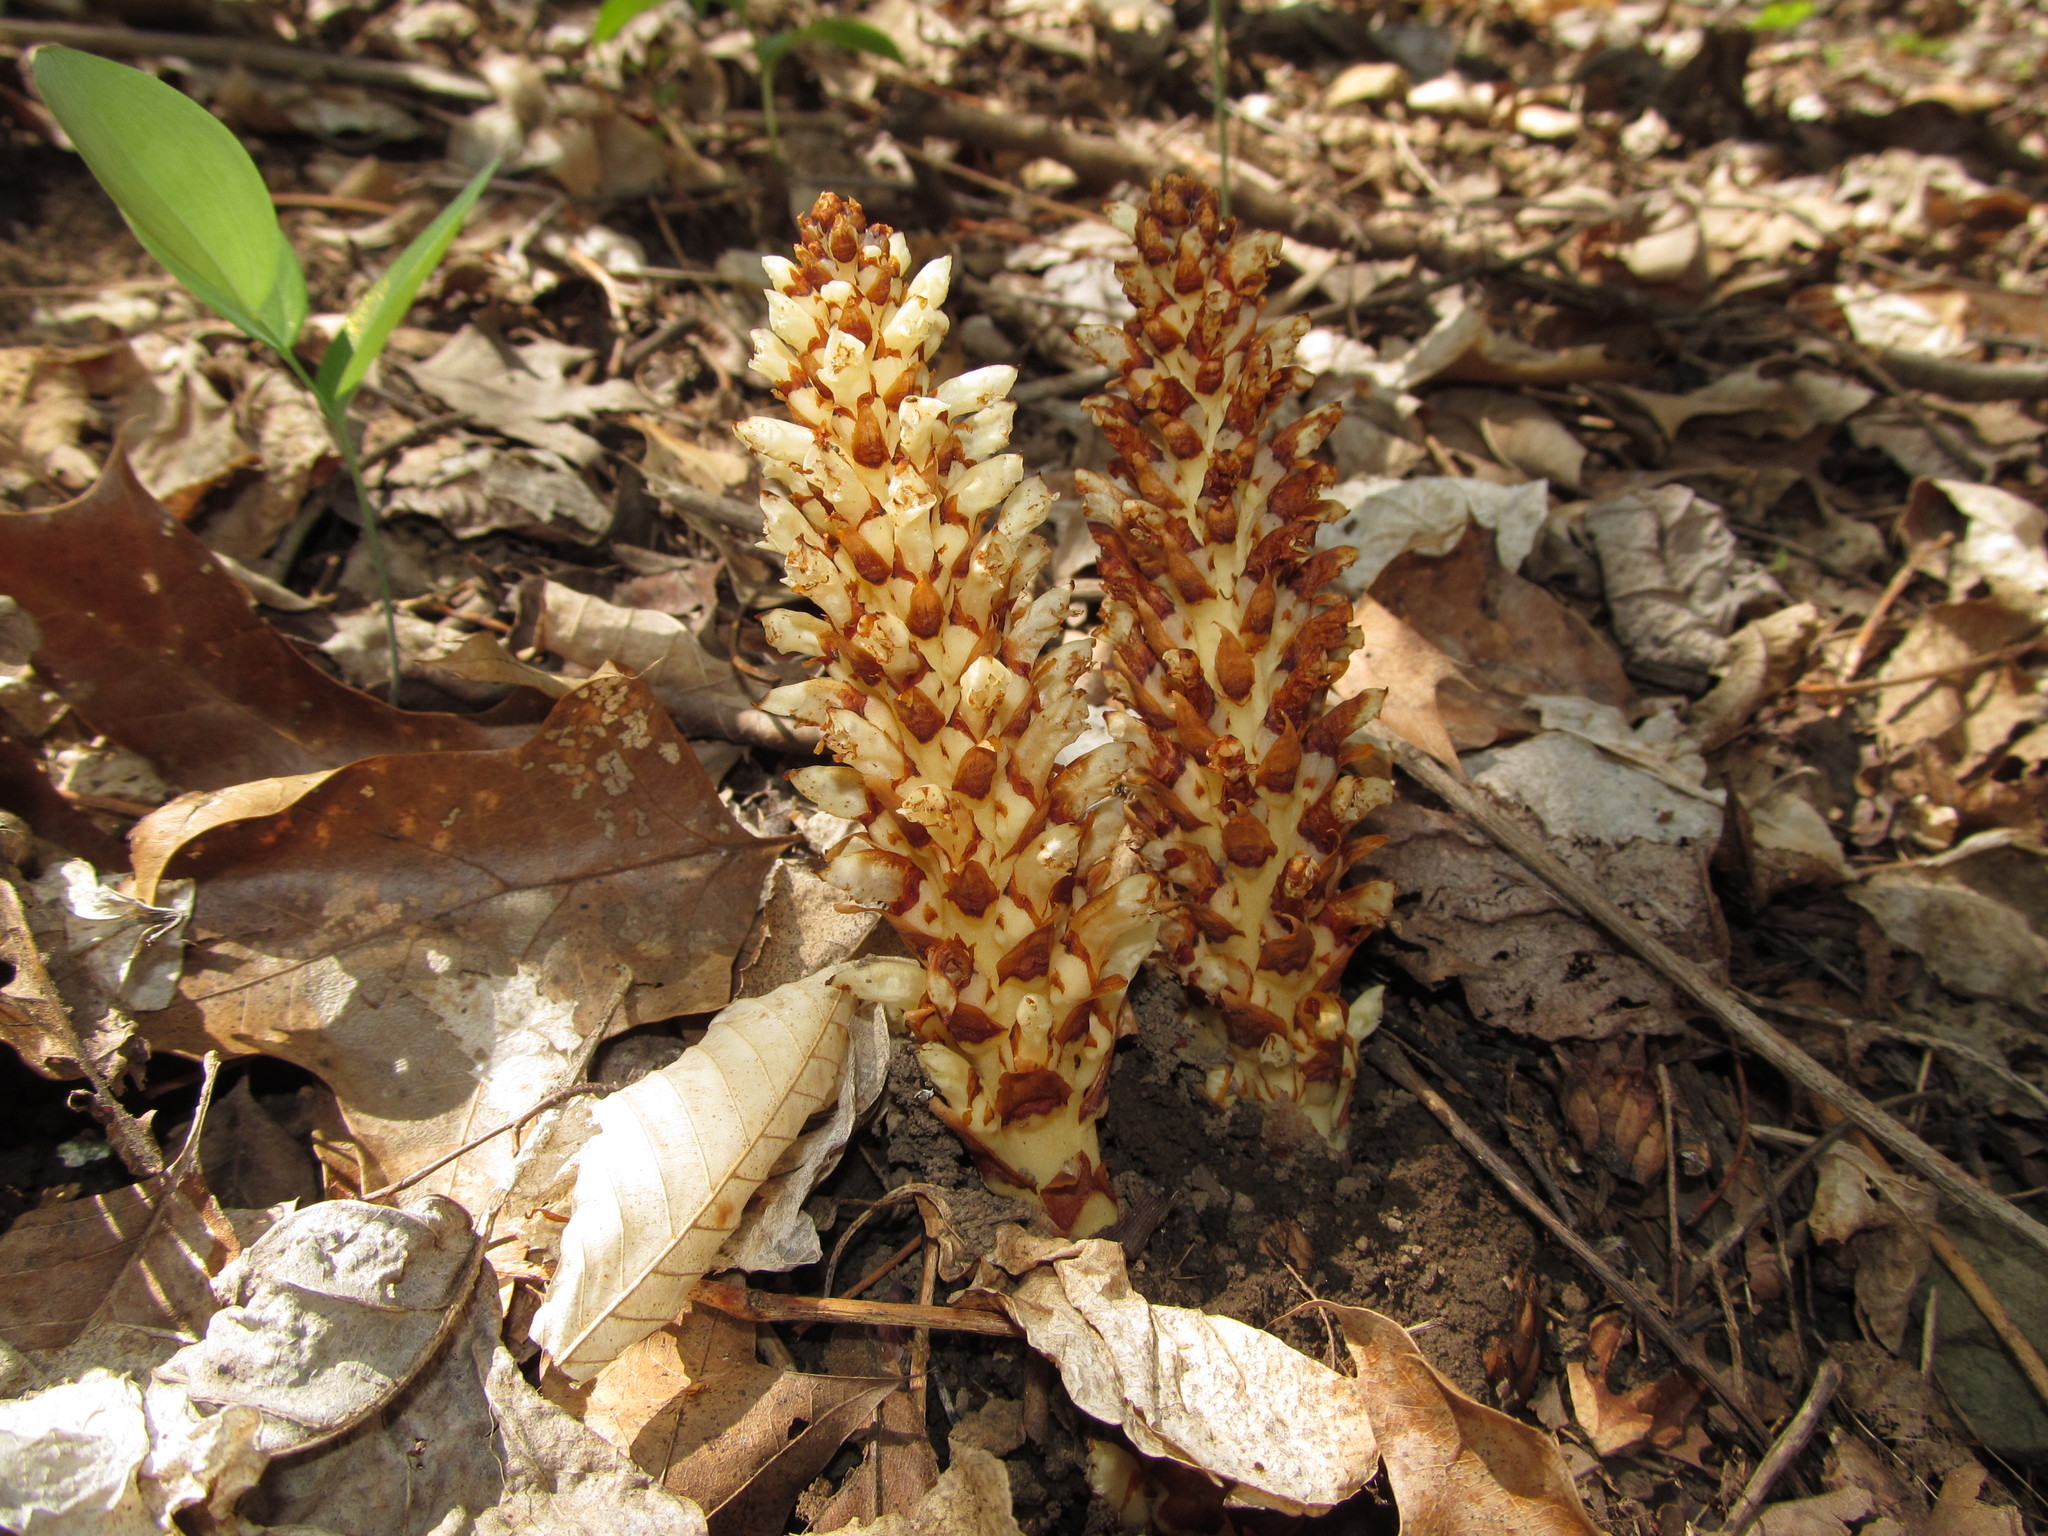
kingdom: Plantae
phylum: Tracheophyta
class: Magnoliopsida
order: Lamiales
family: Orobanchaceae
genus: Conopholis
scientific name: Conopholis americana
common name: American cancer-root
